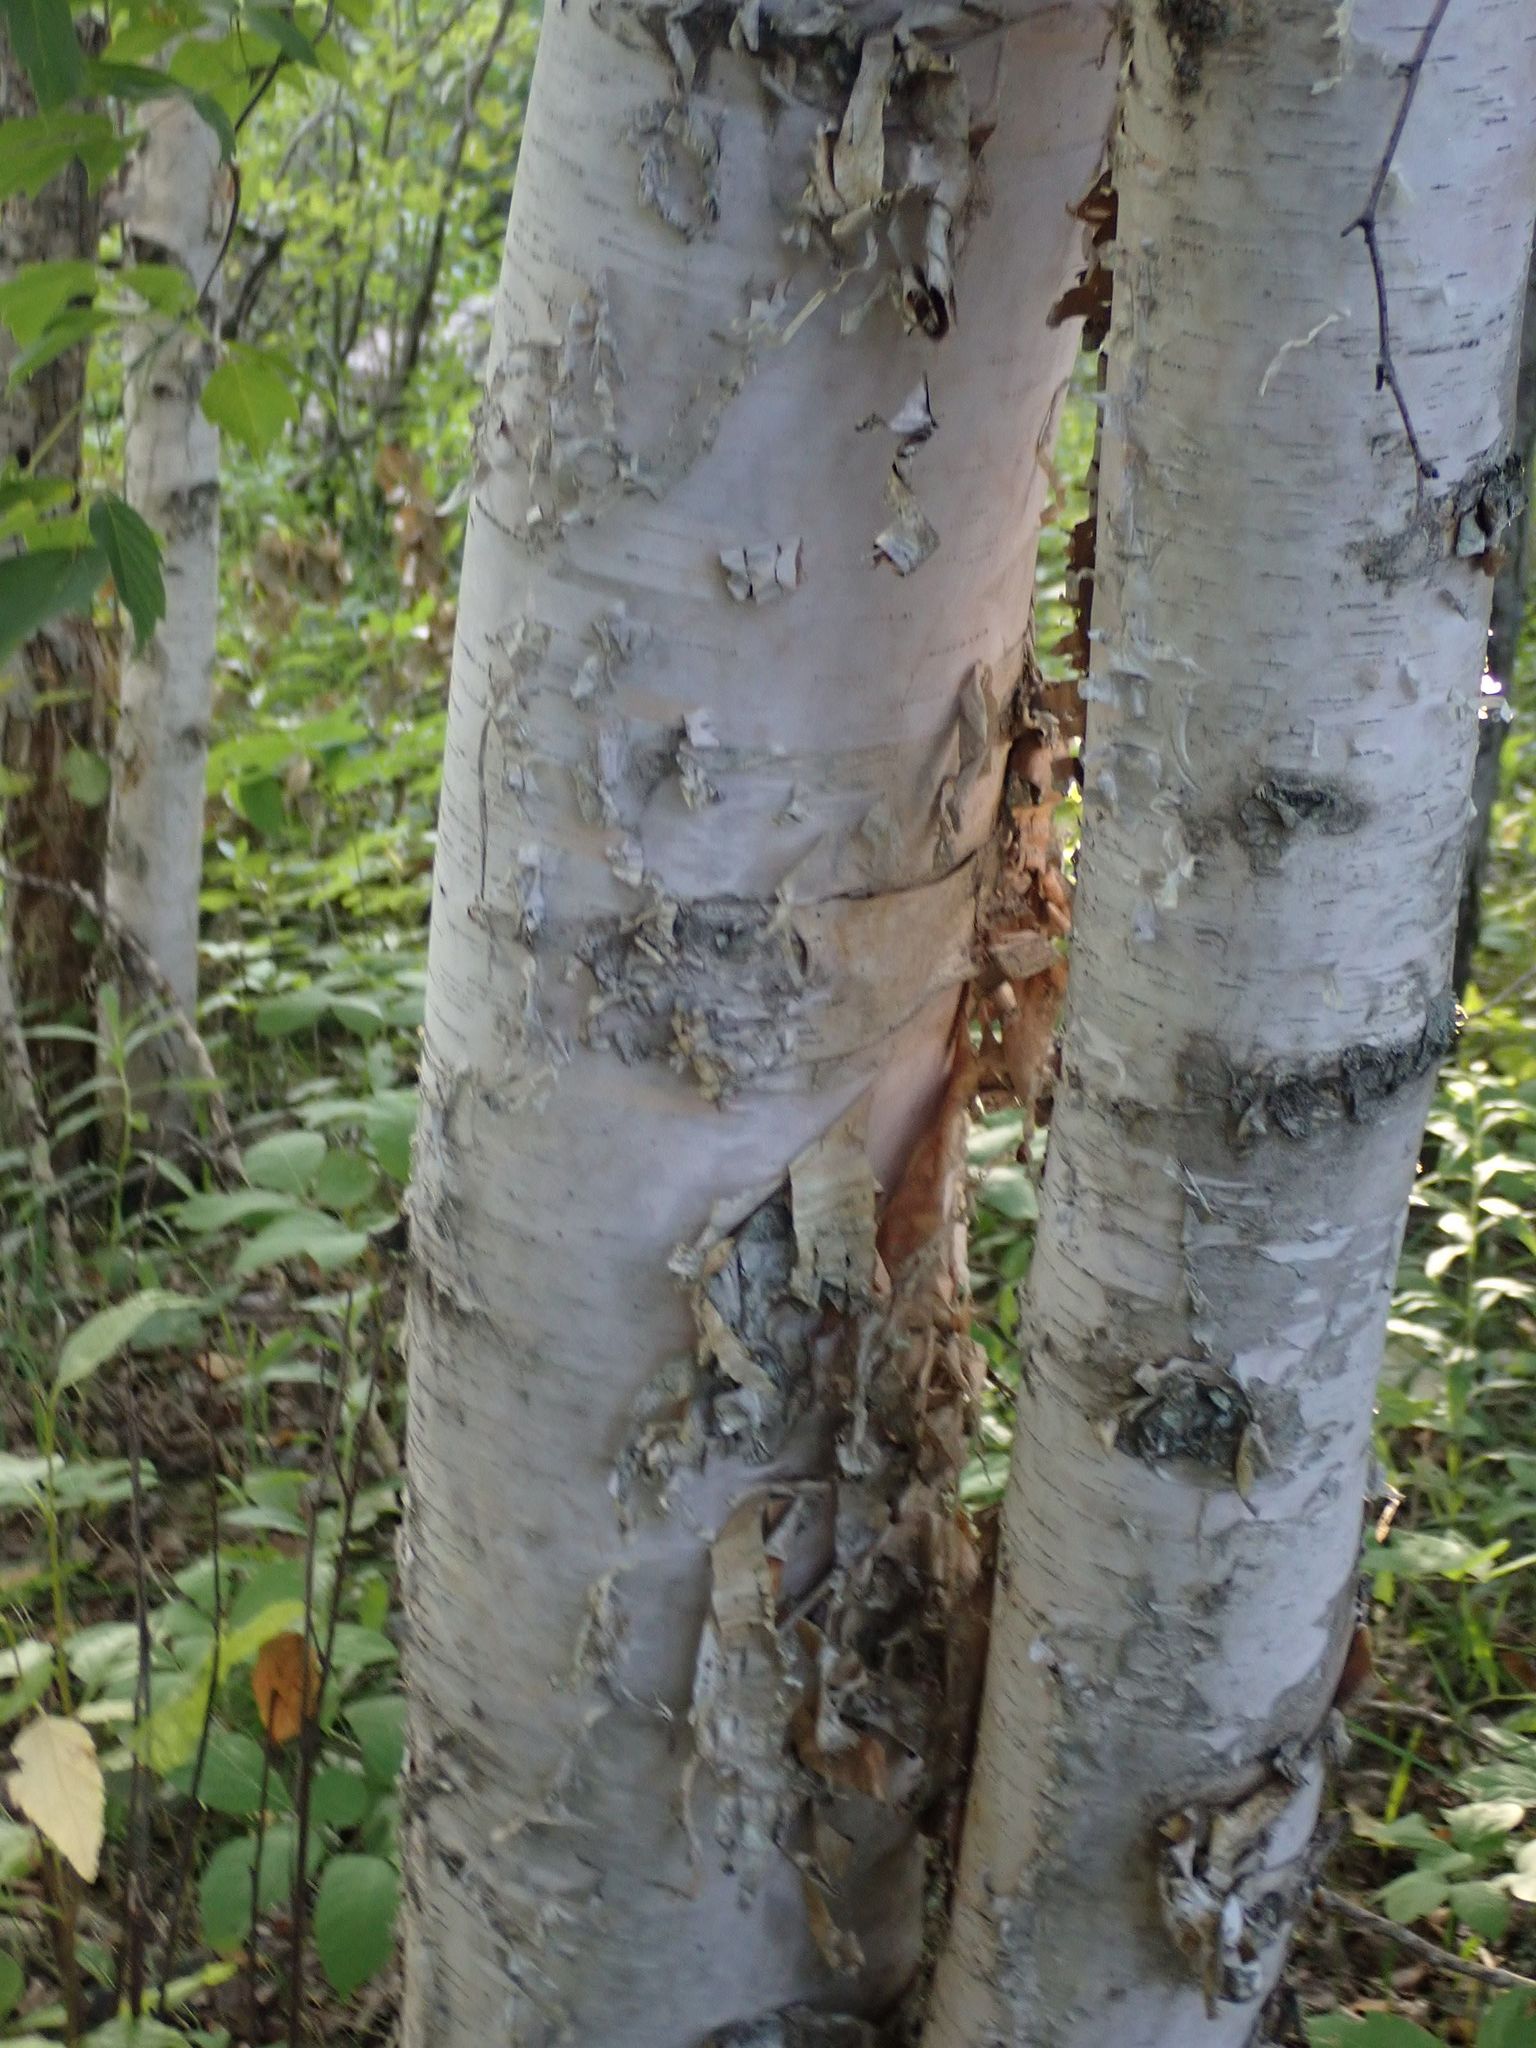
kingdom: Plantae
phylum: Tracheophyta
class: Magnoliopsida
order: Fagales
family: Betulaceae
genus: Betula
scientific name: Betula papyrifera
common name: Paper birch
